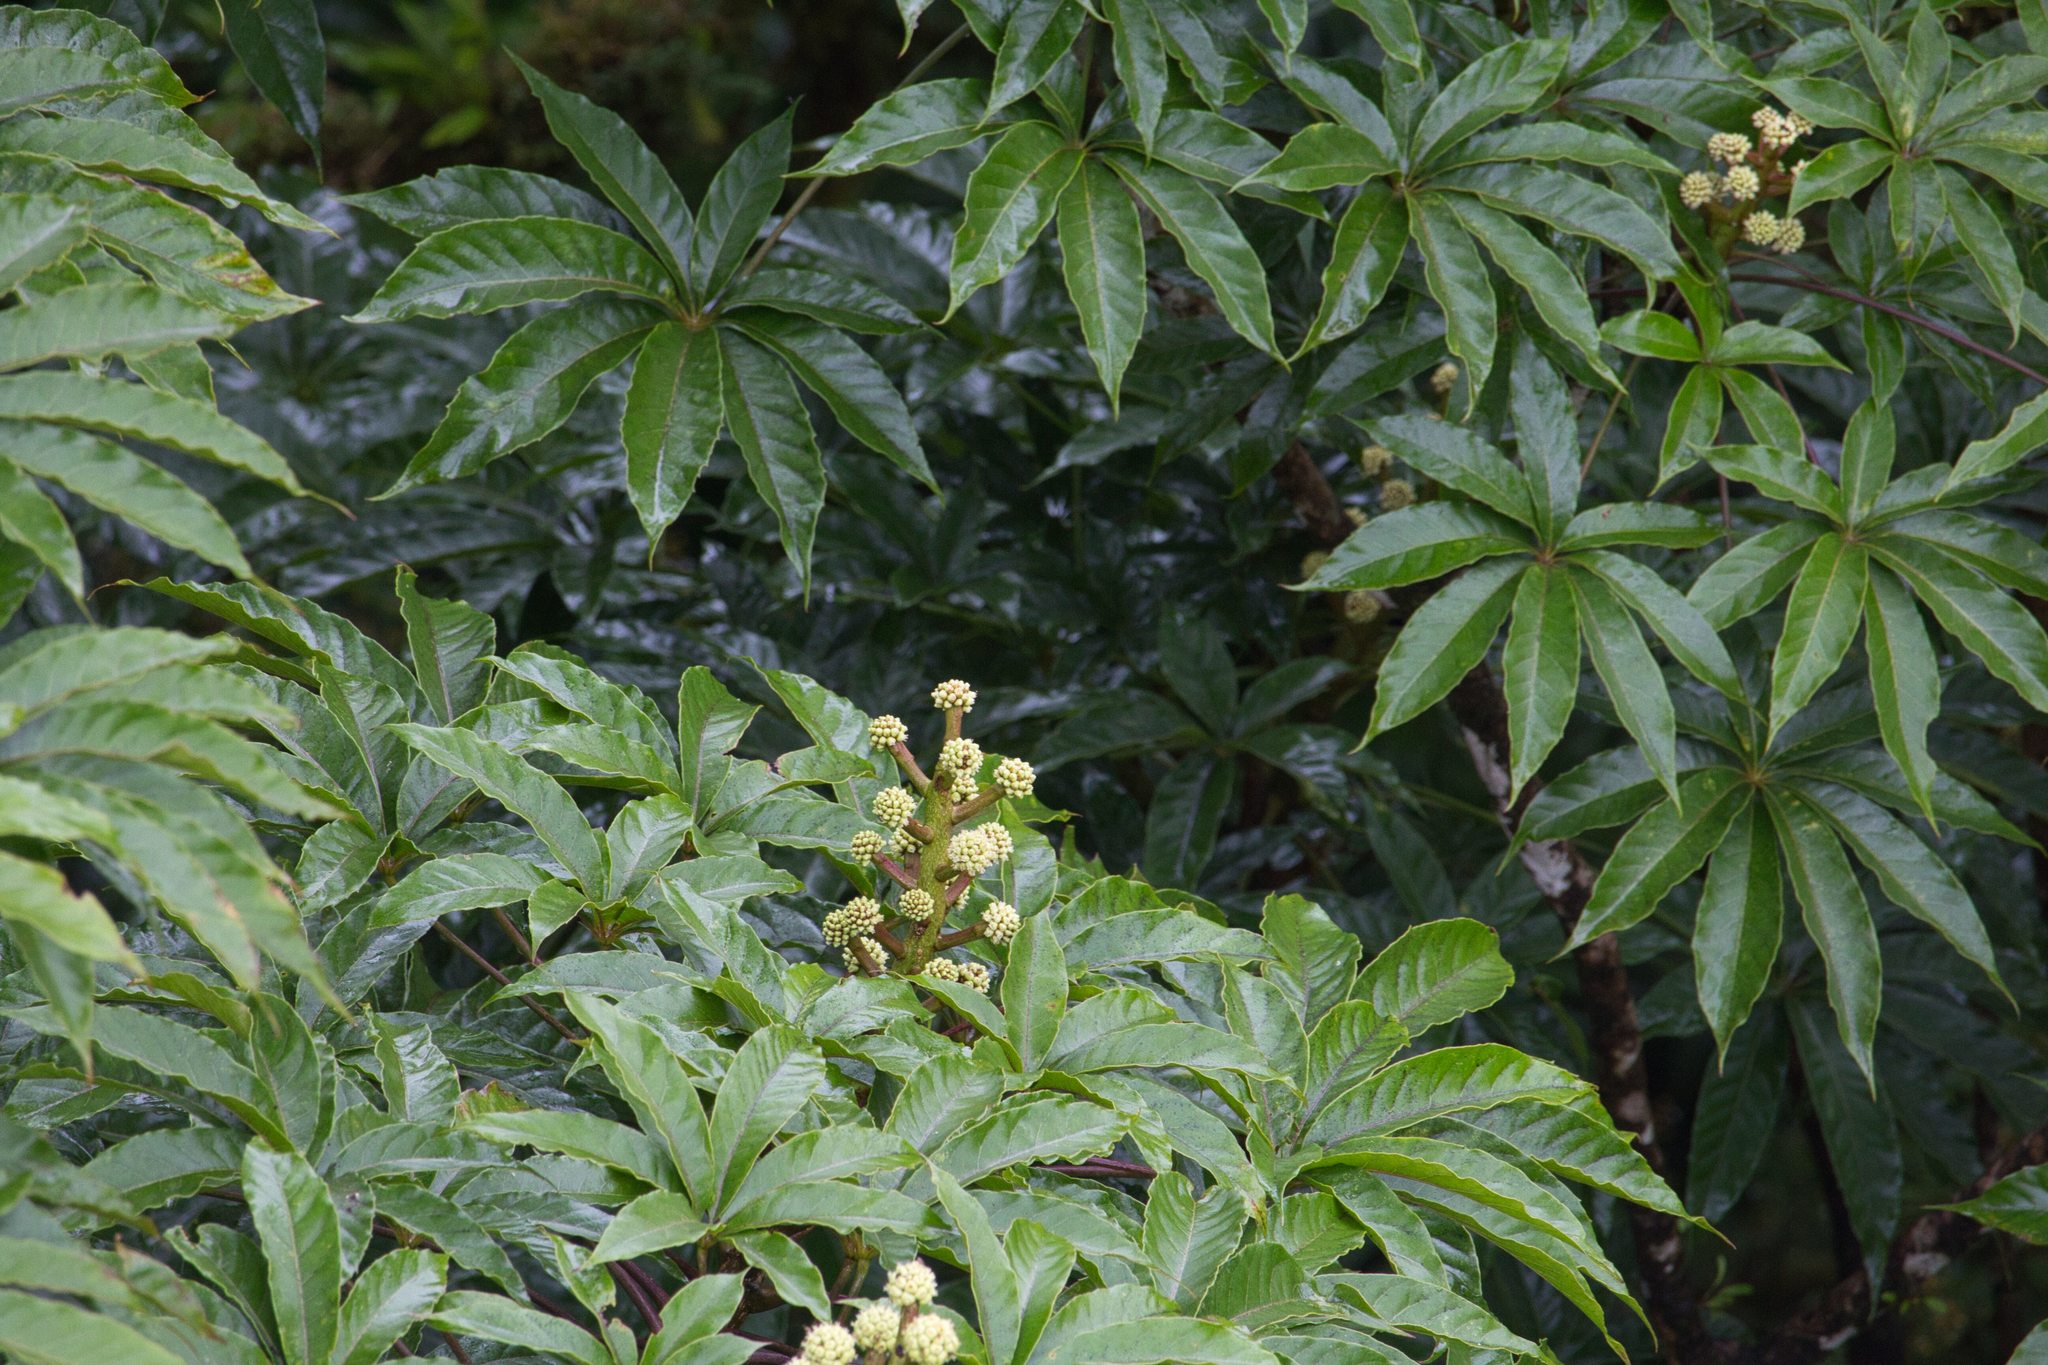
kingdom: Plantae
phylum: Tracheophyta
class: Magnoliopsida
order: Apiales
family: Araliaceae
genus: Oreopanax
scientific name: Oreopanax xalapensis
